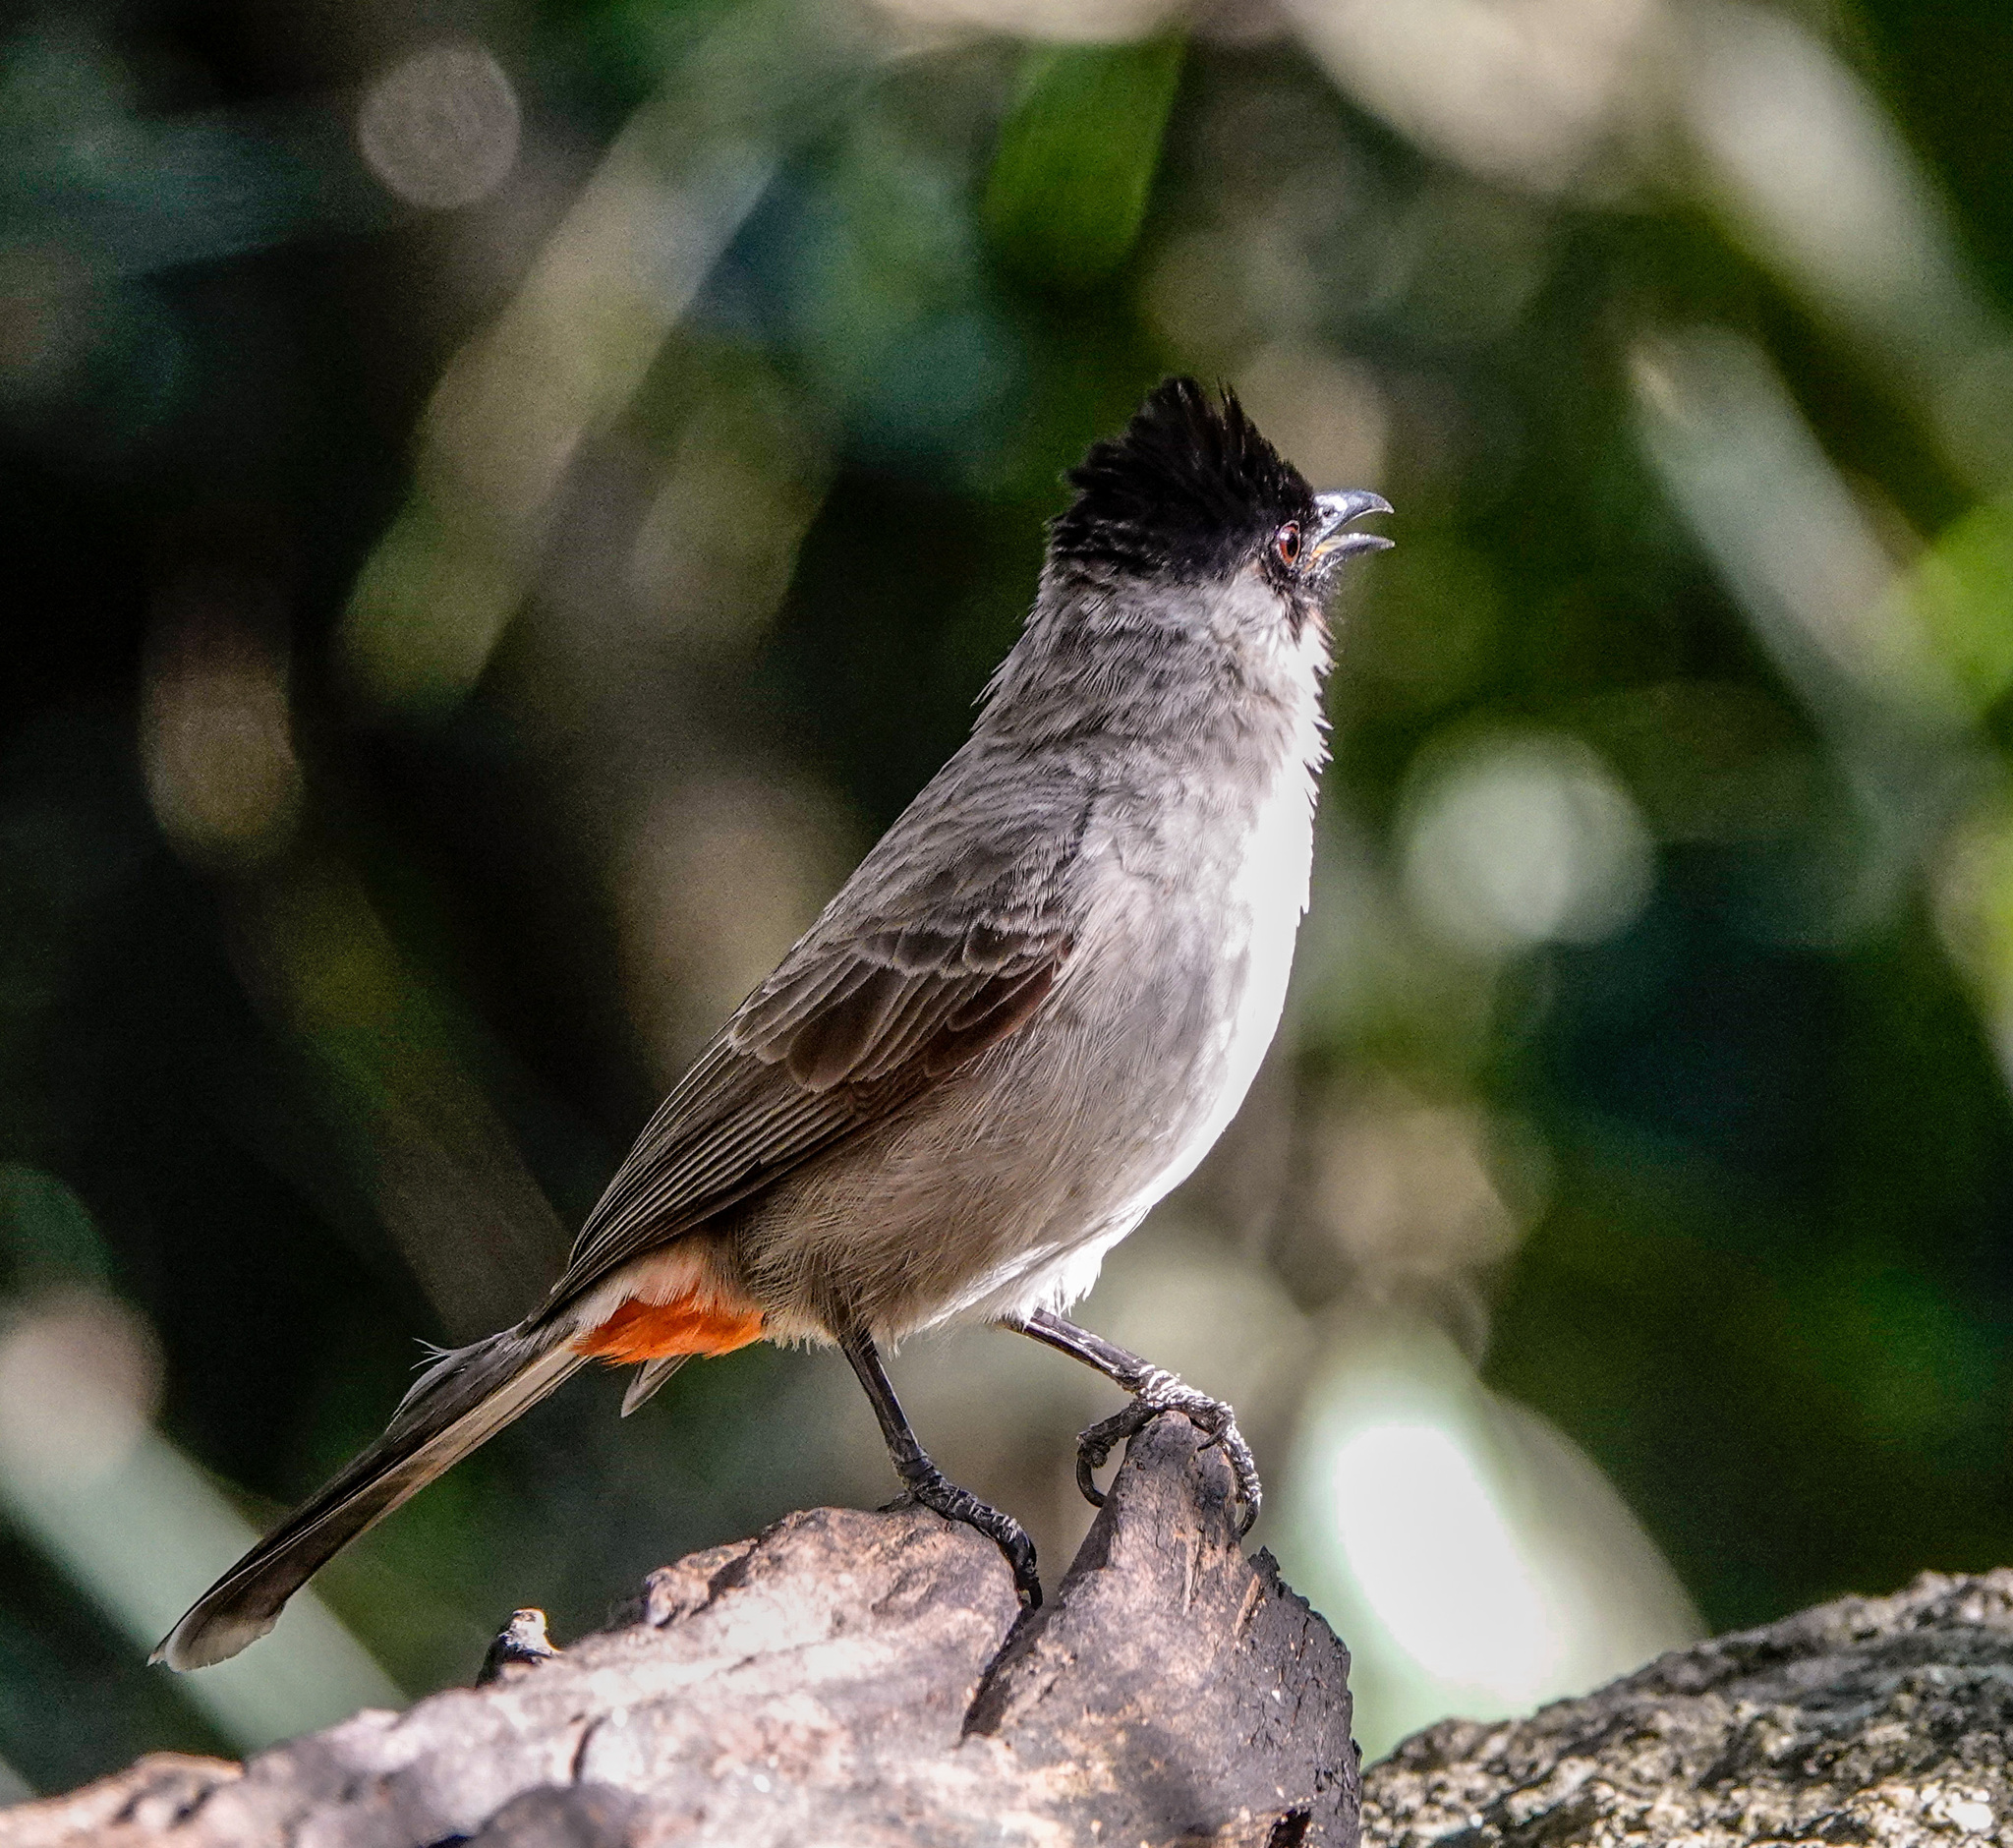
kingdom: Animalia
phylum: Chordata
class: Aves
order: Passeriformes
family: Pycnonotidae
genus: Pycnonotus
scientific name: Pycnonotus aurigaster
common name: Sooty-headed bulbul
